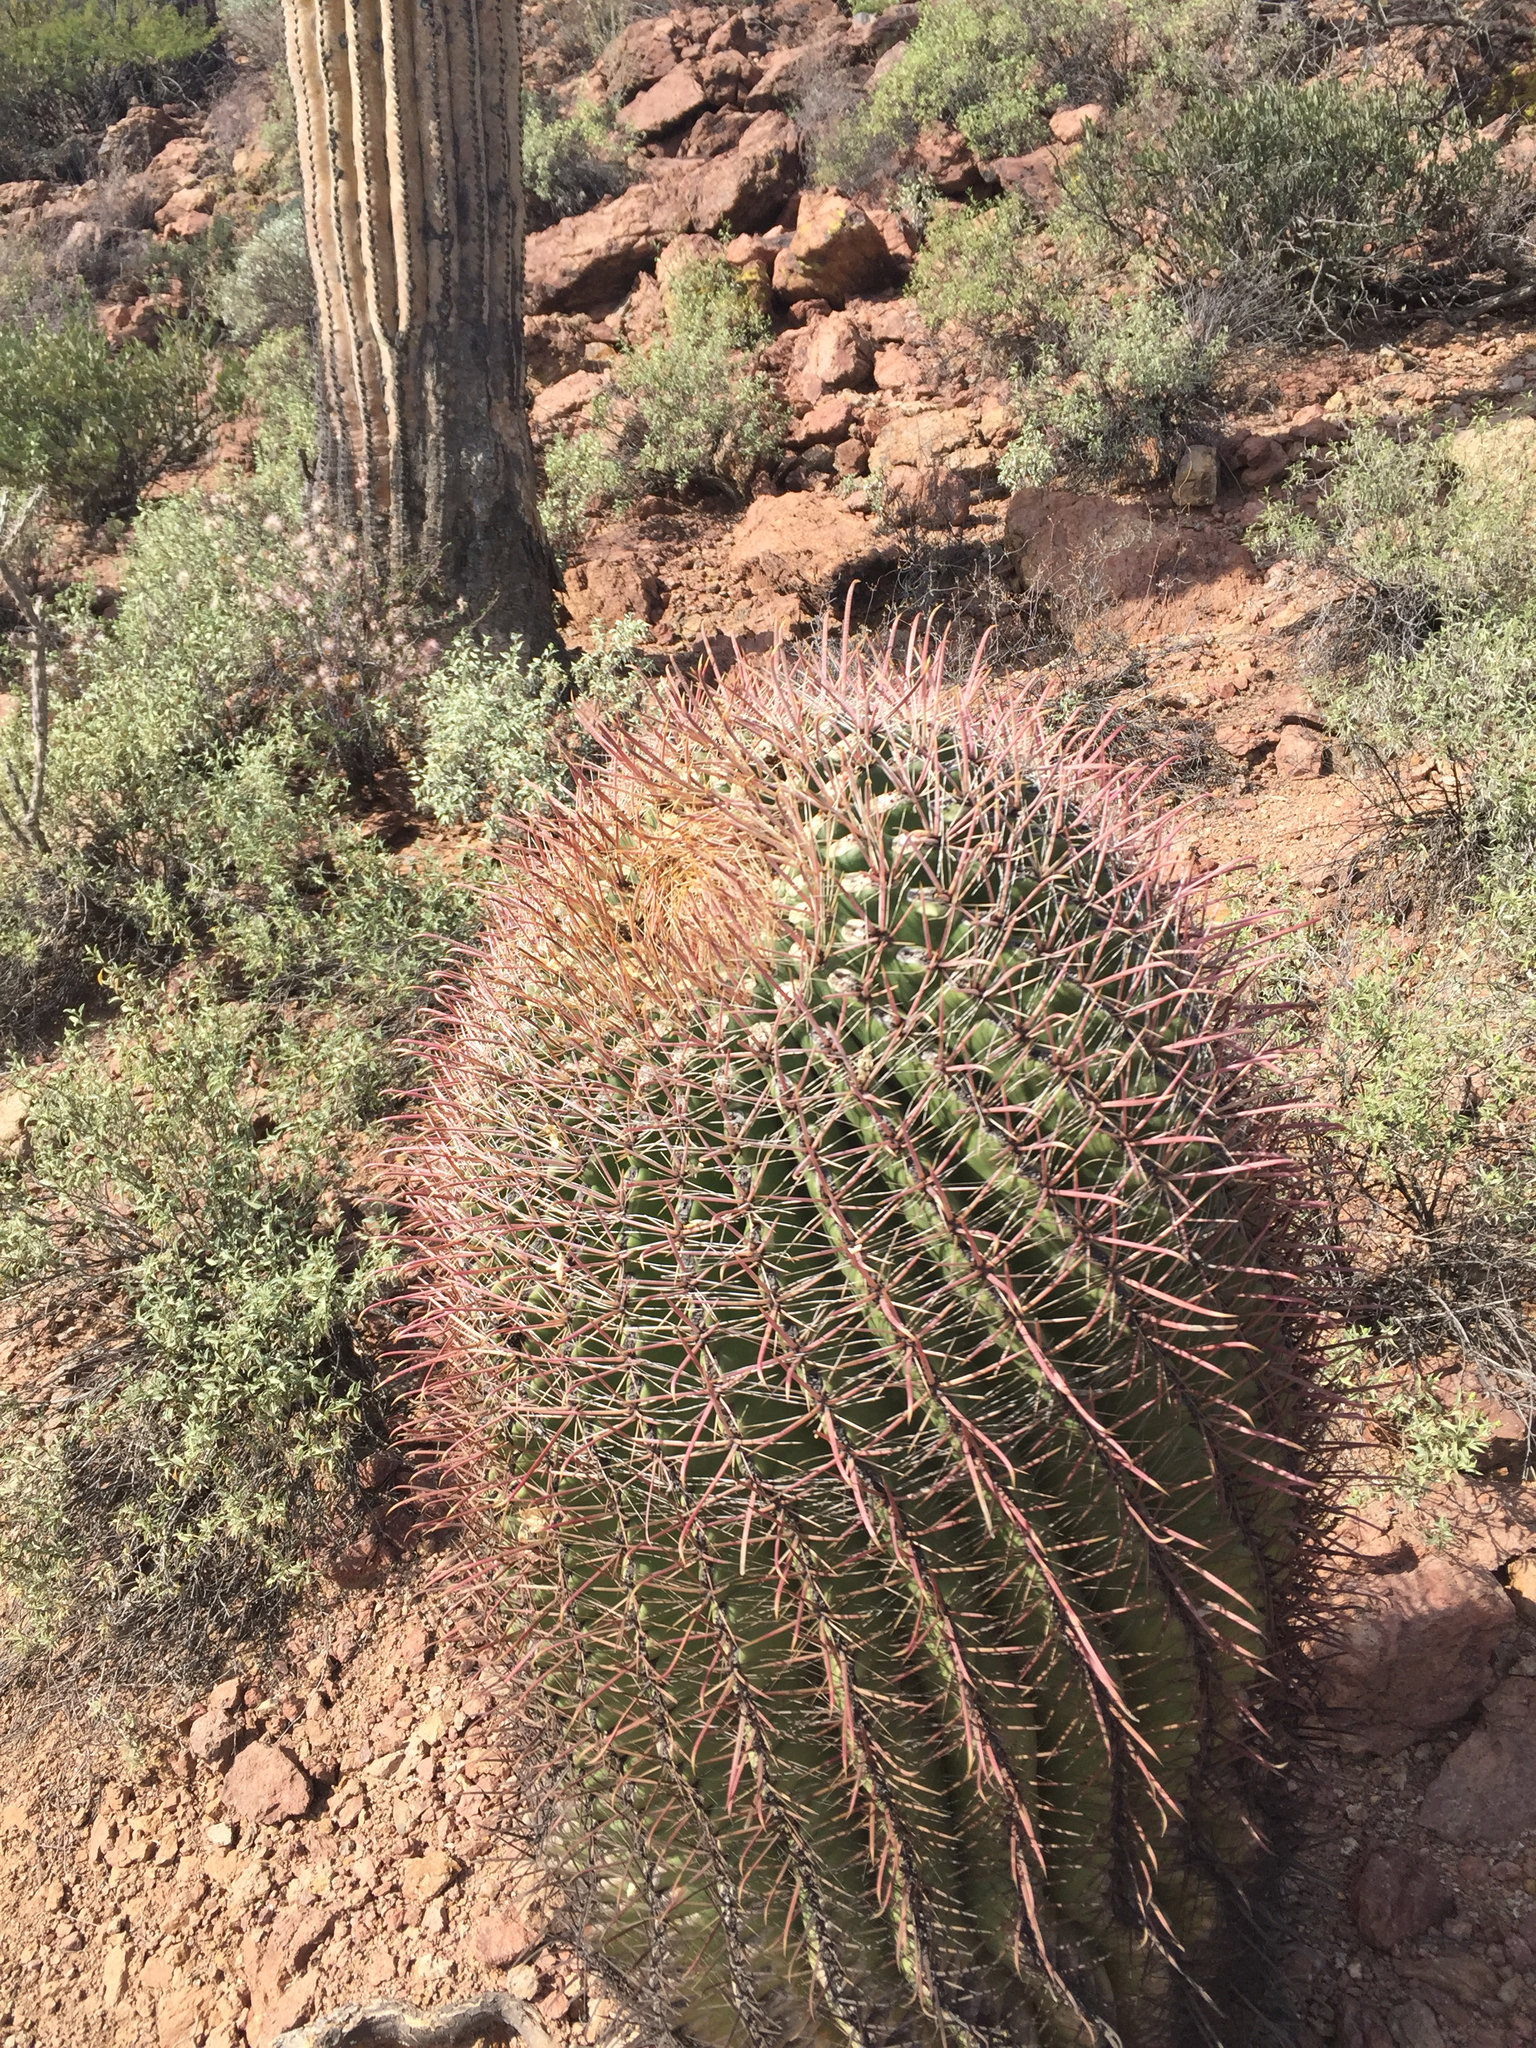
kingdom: Plantae
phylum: Tracheophyta
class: Magnoliopsida
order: Caryophyllales
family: Cactaceae
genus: Ferocactus
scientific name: Ferocactus wislizeni
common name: Candy barrel cactus
